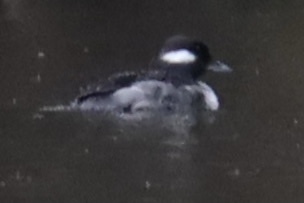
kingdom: Animalia
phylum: Chordata
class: Aves
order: Anseriformes
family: Anatidae
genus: Bucephala
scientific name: Bucephala albeola
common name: Bufflehead
